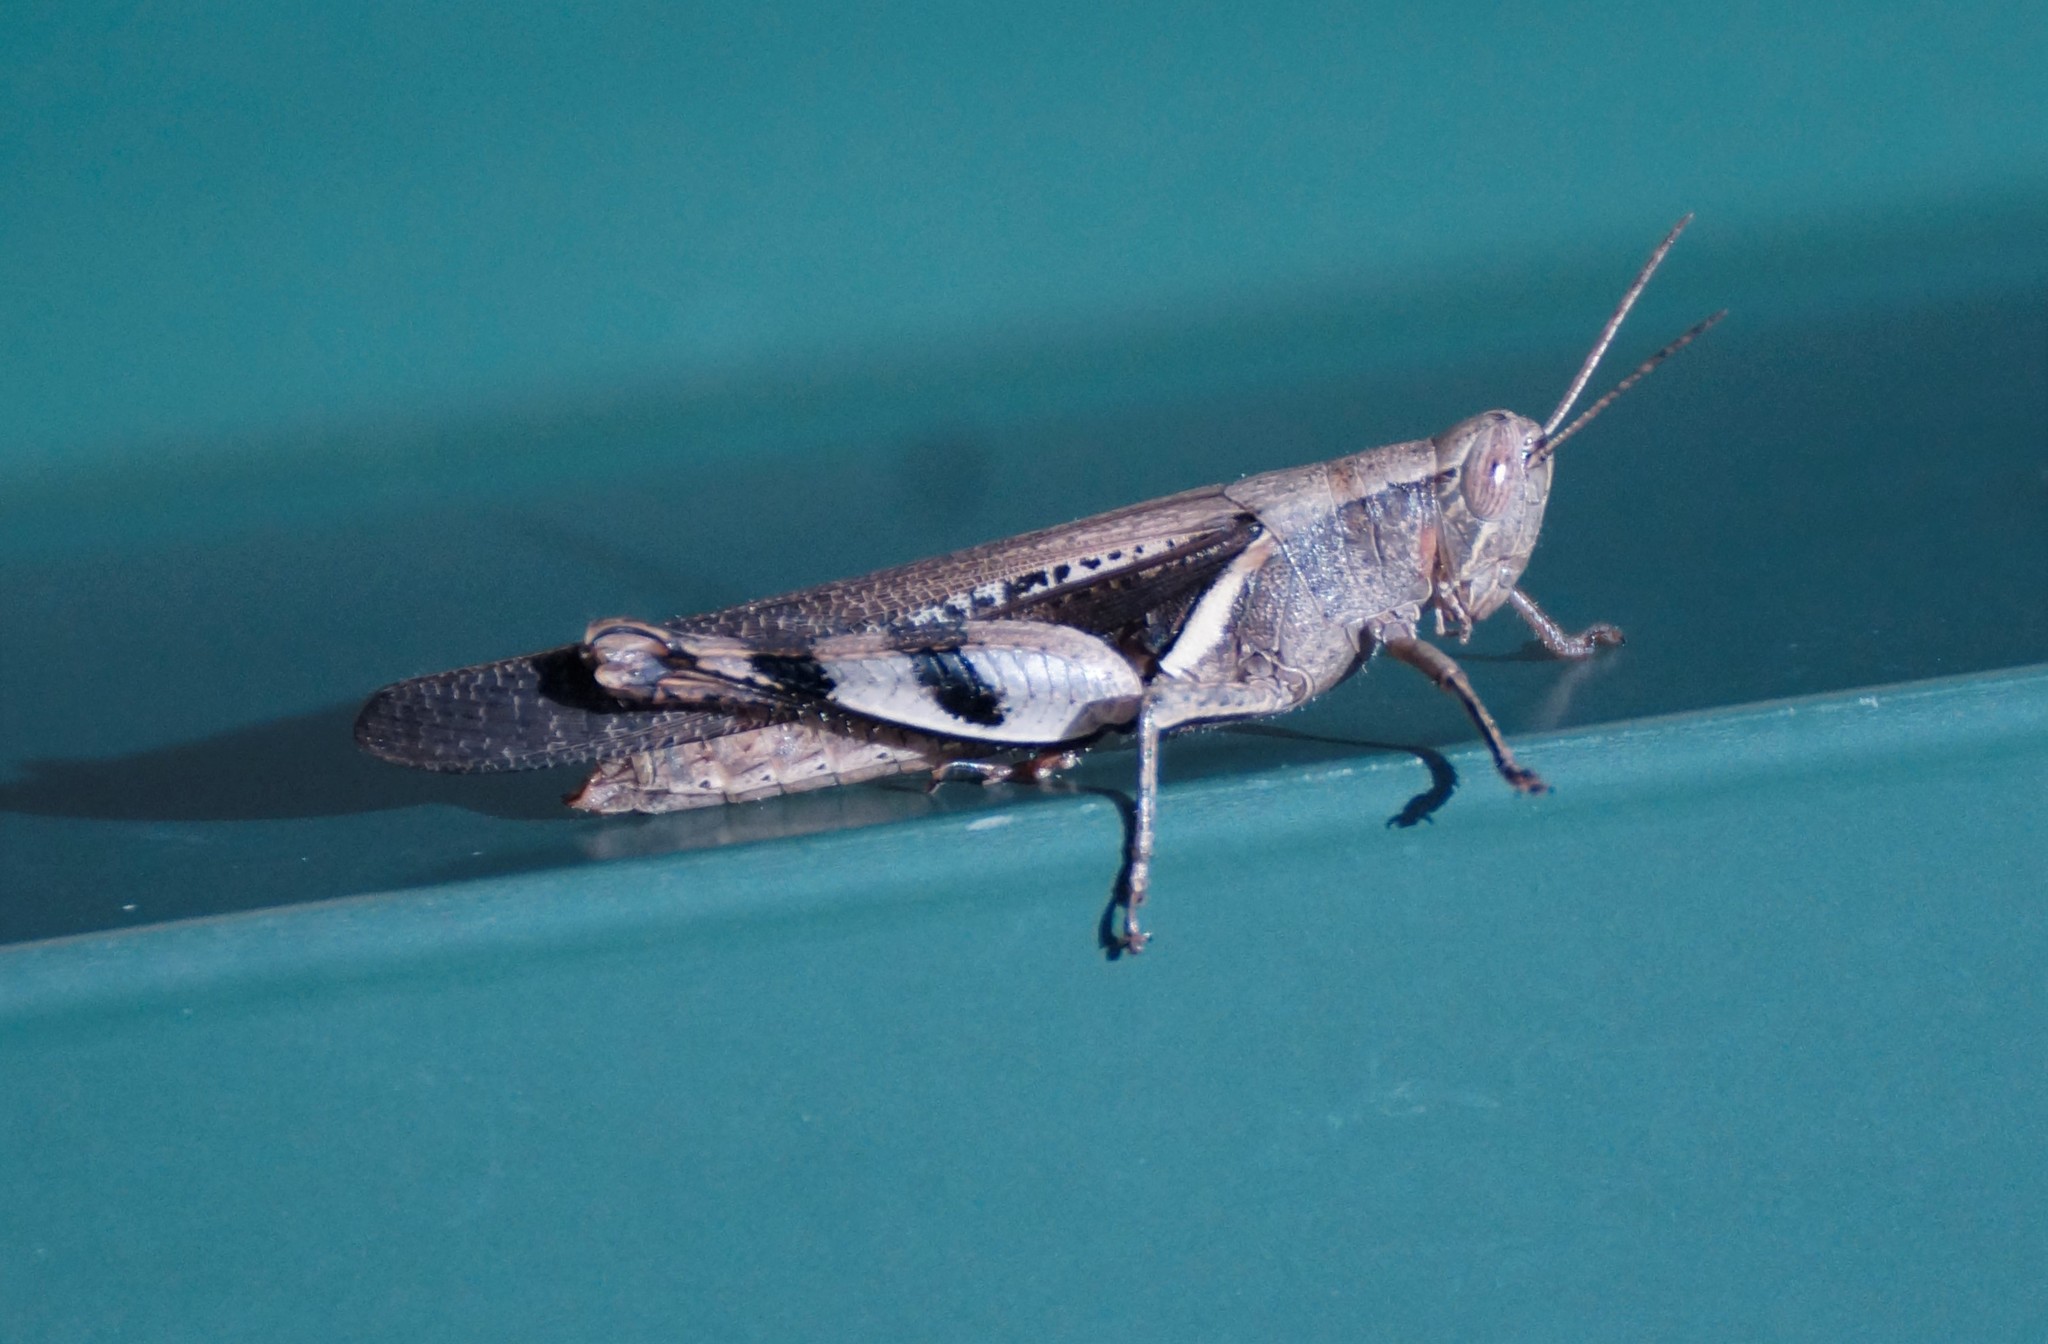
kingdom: Animalia
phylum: Arthropoda
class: Insecta
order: Orthoptera
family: Acrididae
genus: Stenocatantops
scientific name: Stenocatantops angustifrons
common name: Common tropical sharptail
